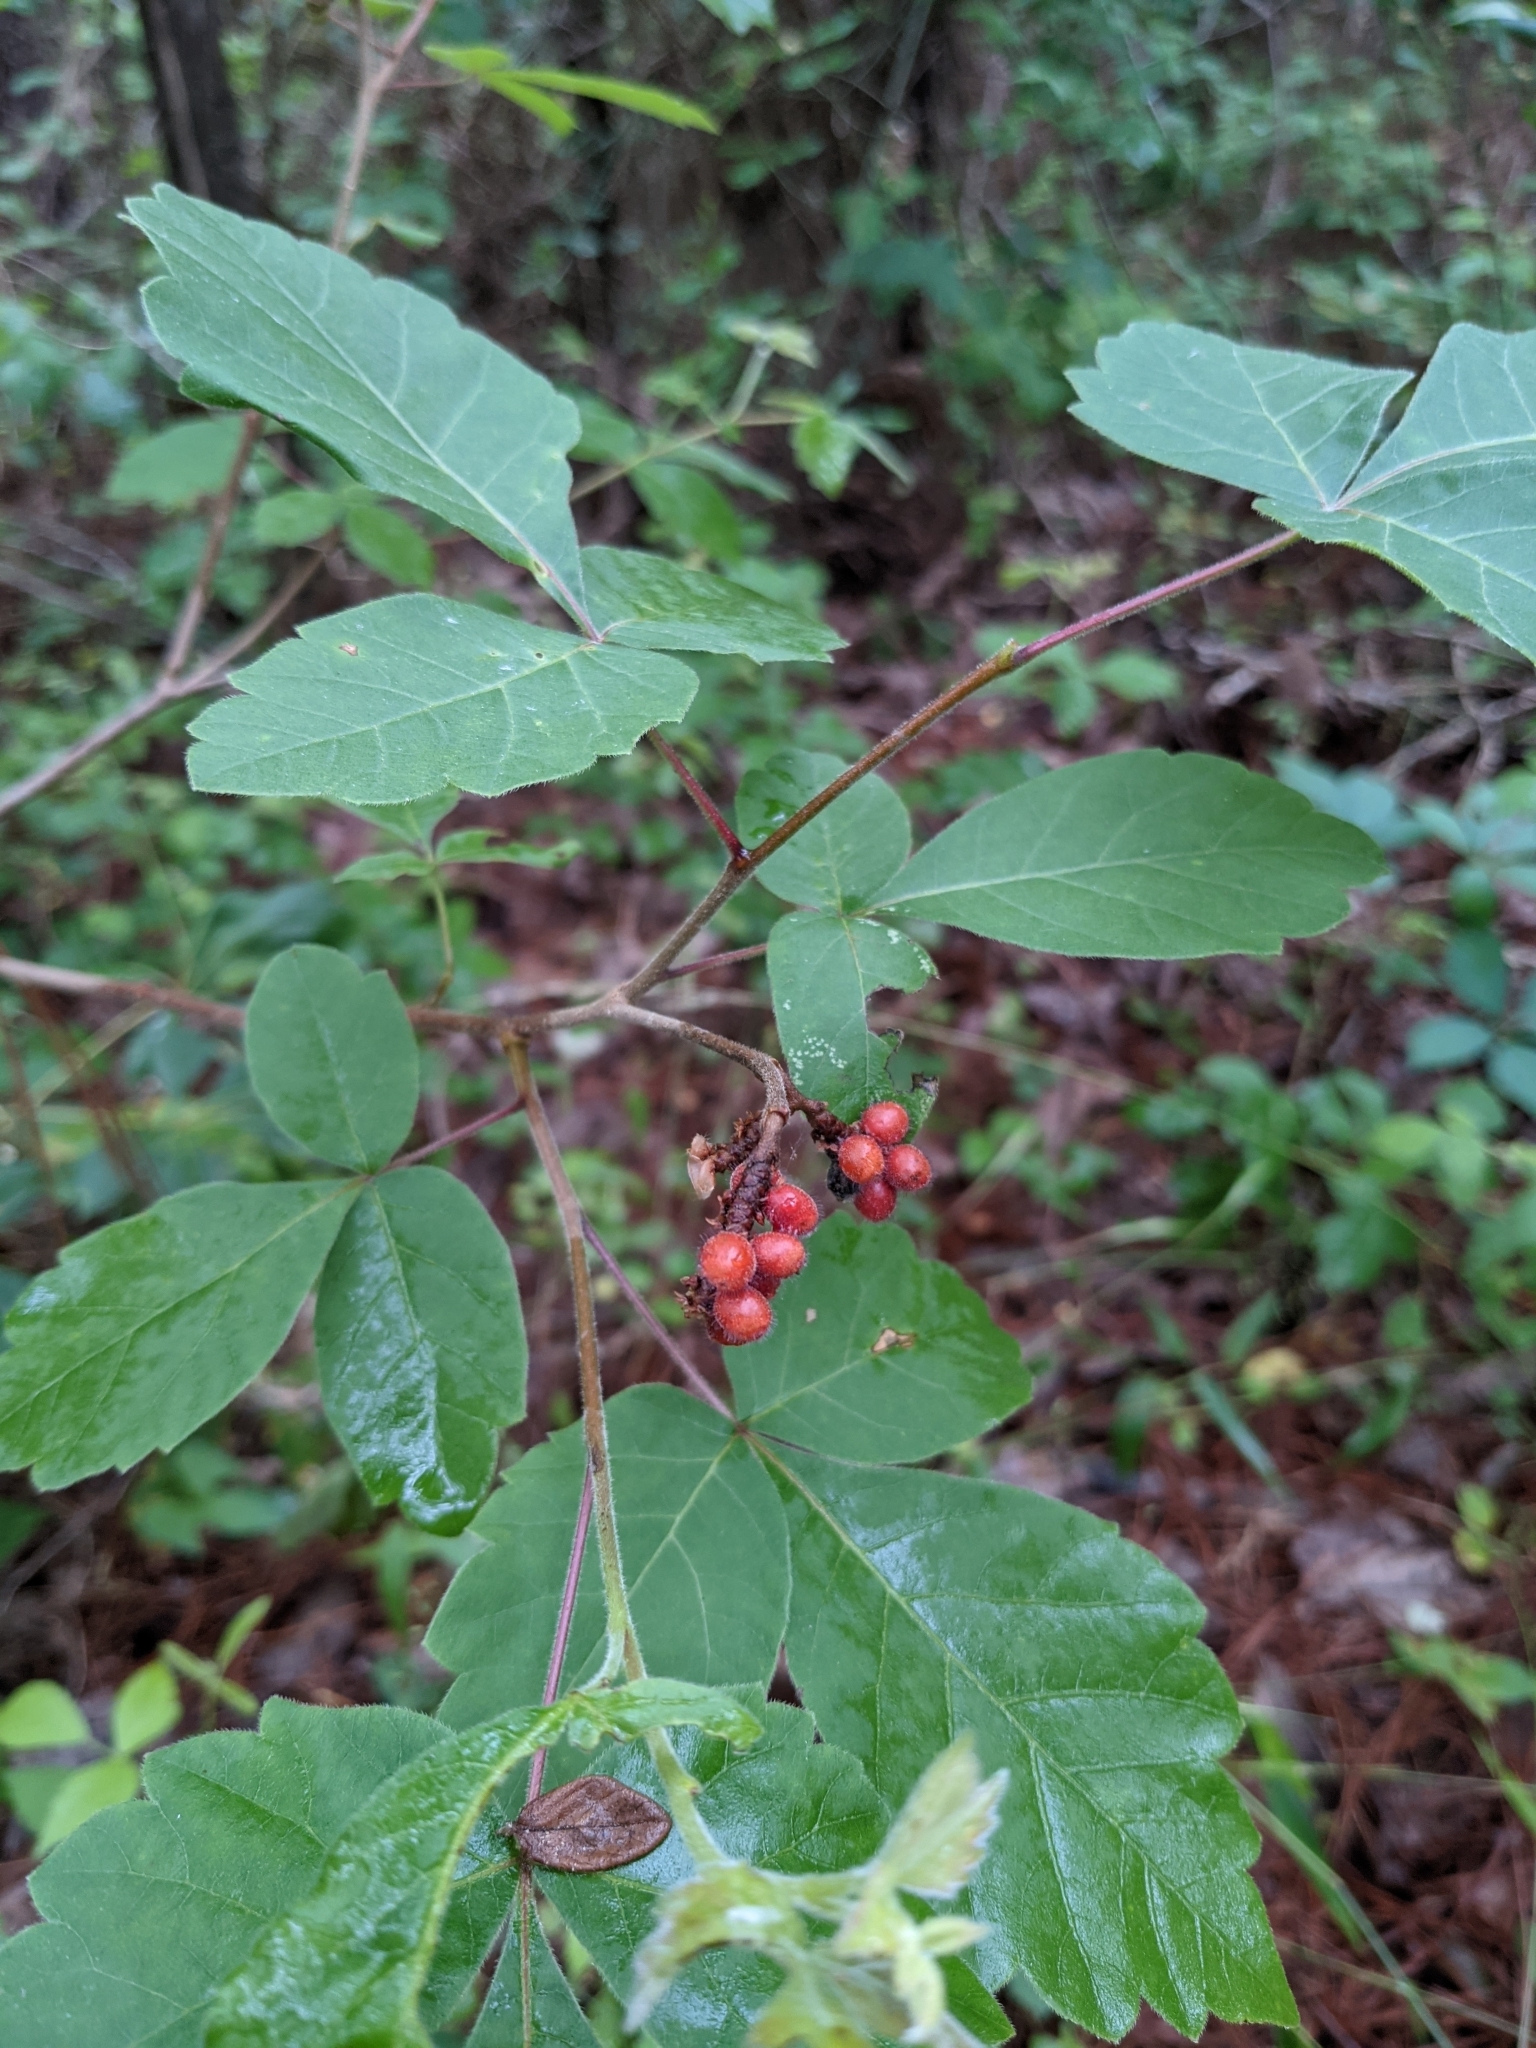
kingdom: Plantae
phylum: Tracheophyta
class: Magnoliopsida
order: Sapindales
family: Anacardiaceae
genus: Rhus
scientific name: Rhus aromatica
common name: Aromatic sumac
